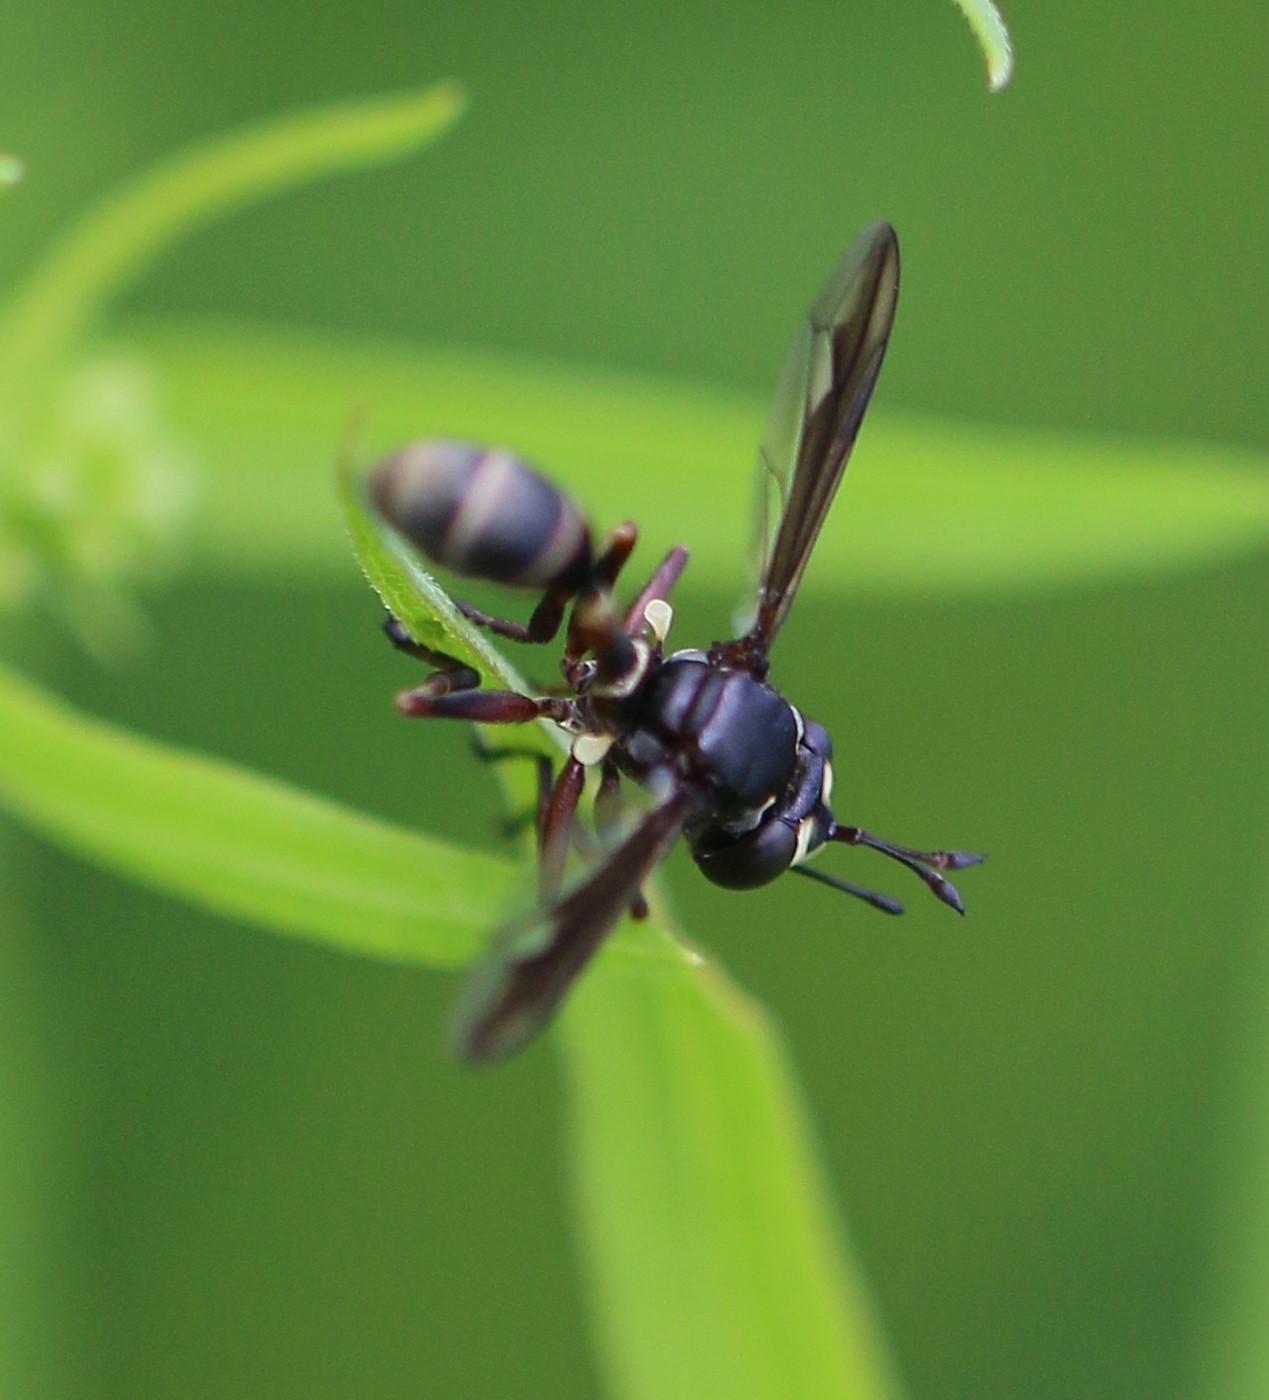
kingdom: Animalia
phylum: Arthropoda
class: Insecta
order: Diptera
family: Conopidae
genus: Physocephala
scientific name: Physocephala furcillata
